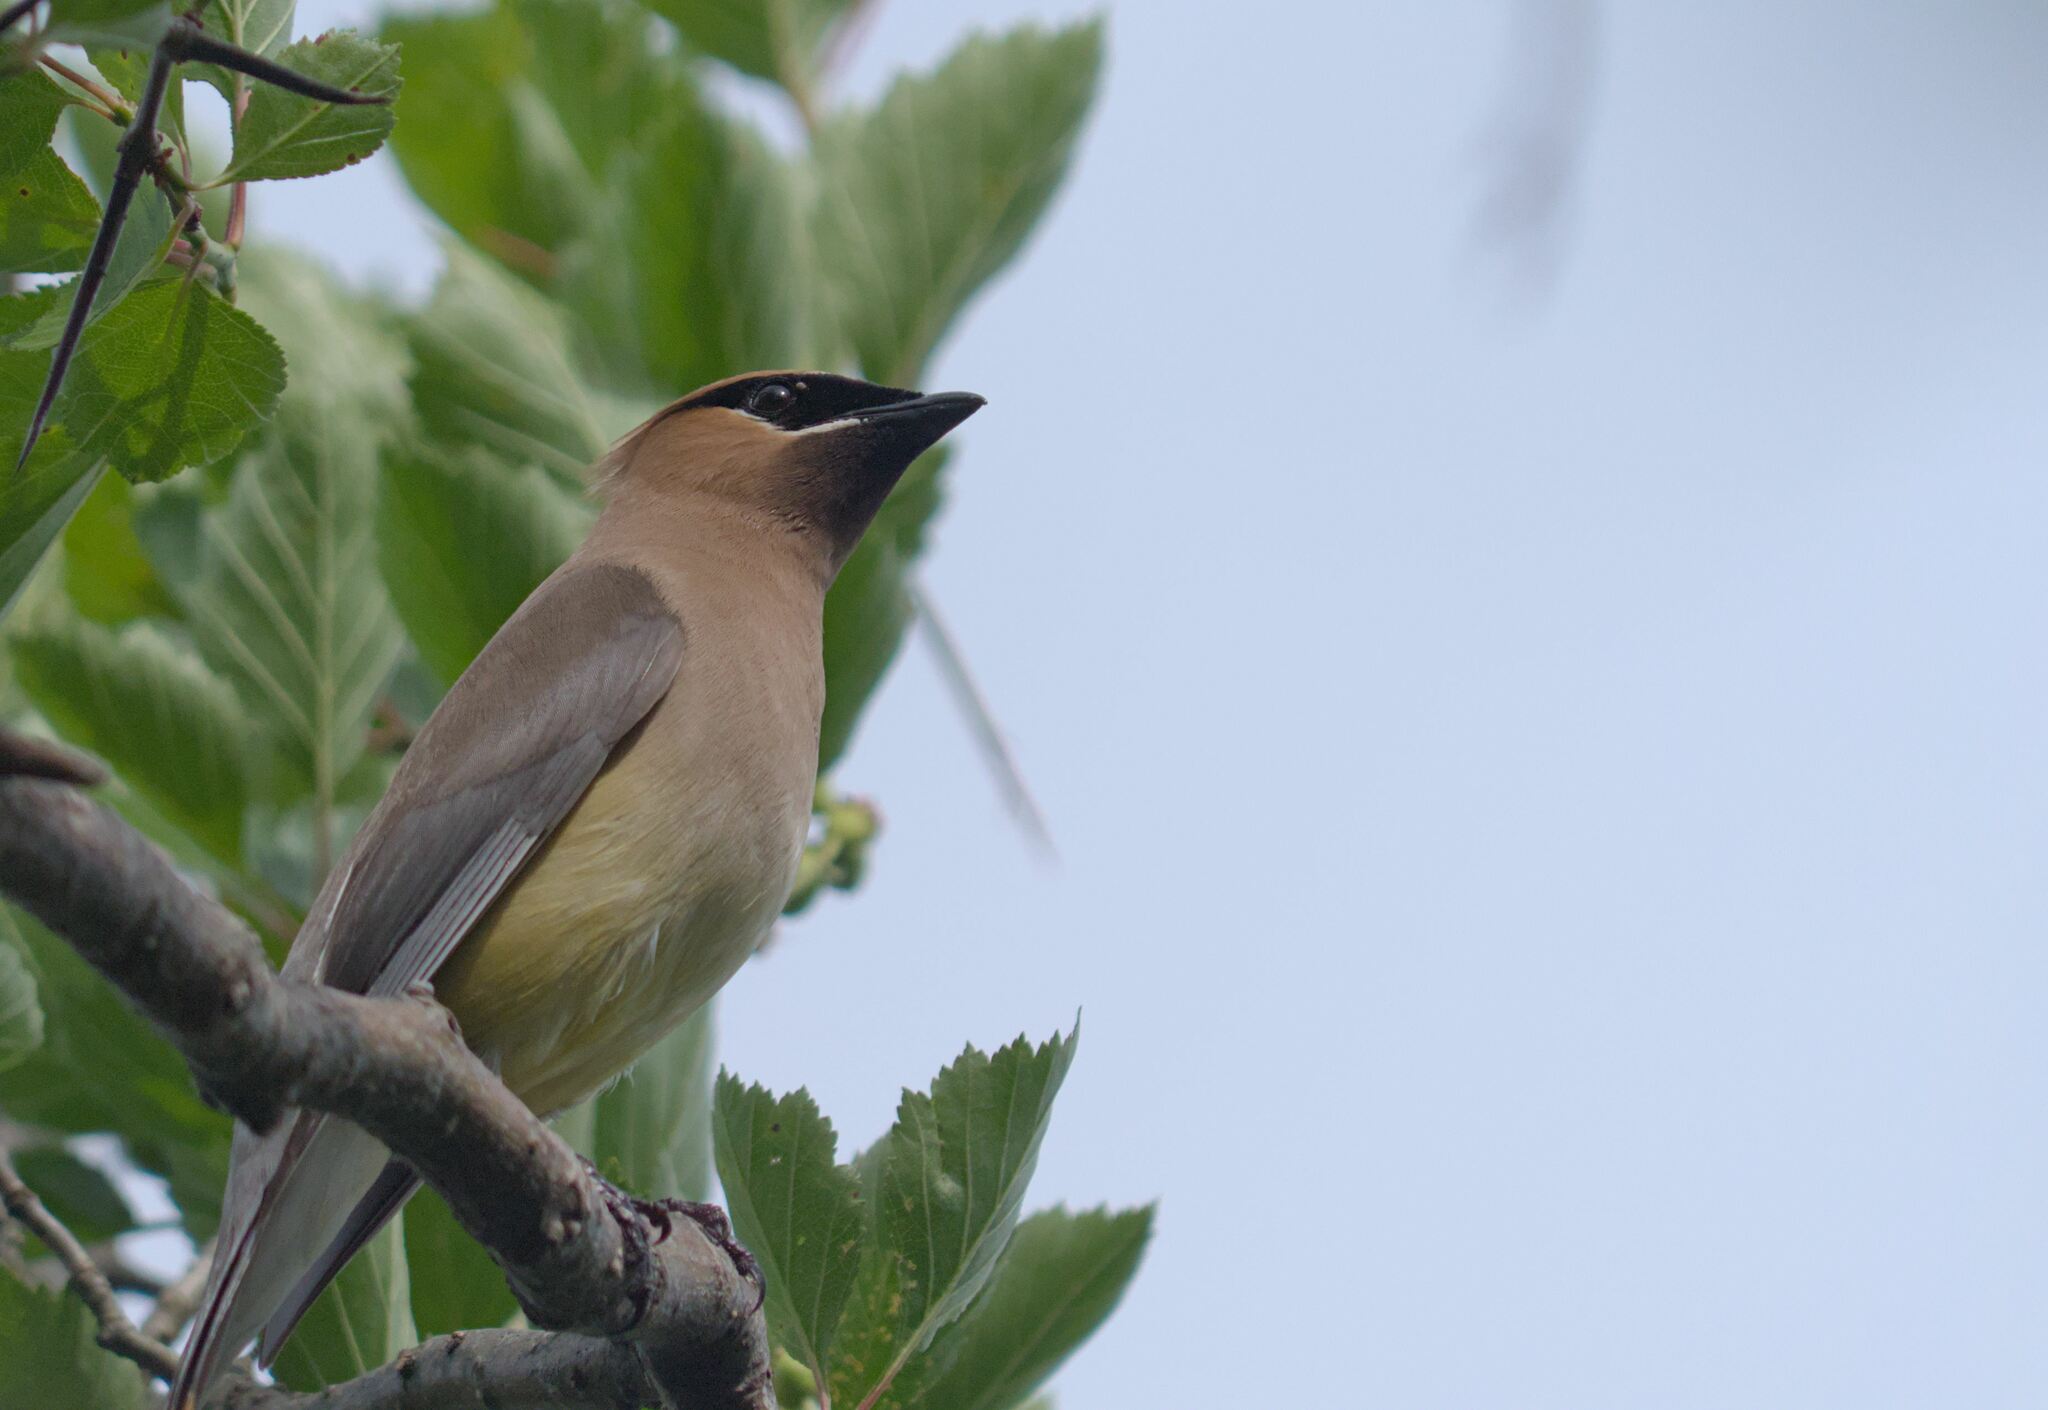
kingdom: Animalia
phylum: Chordata
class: Aves
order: Passeriformes
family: Bombycillidae
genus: Bombycilla
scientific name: Bombycilla cedrorum
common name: Cedar waxwing
